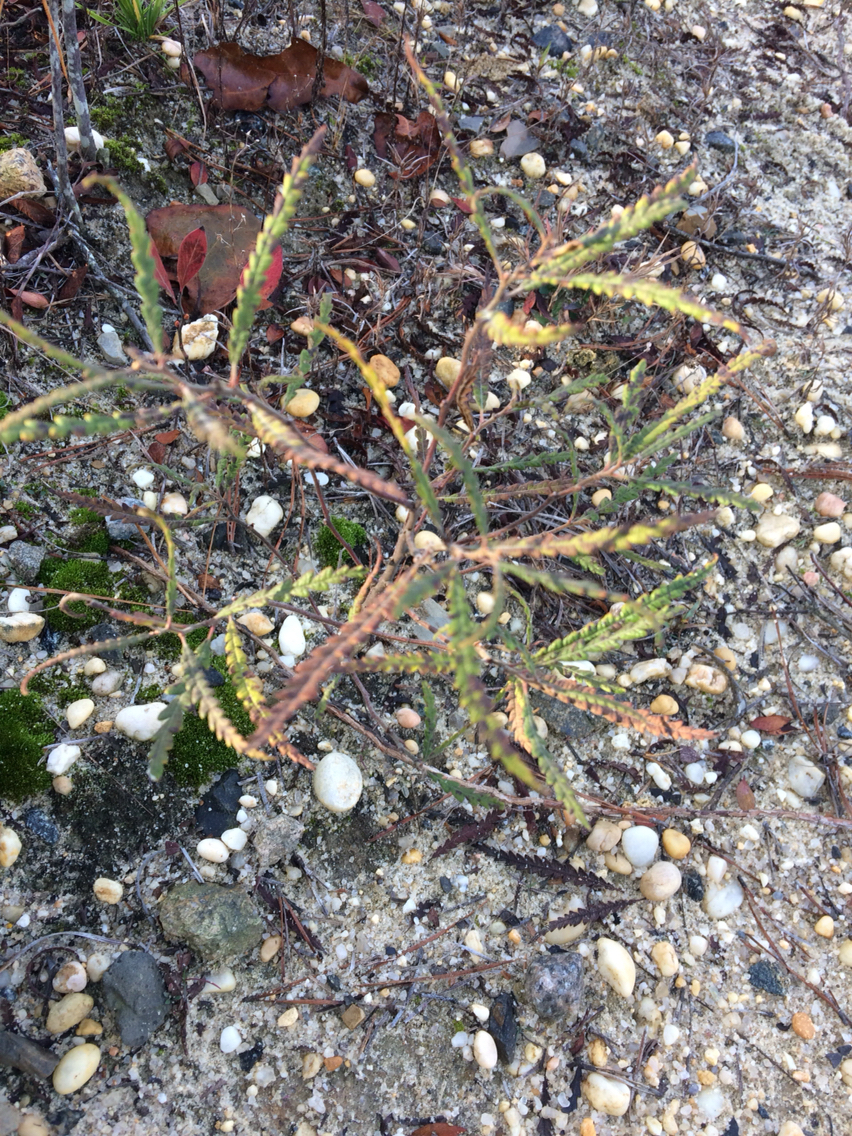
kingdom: Plantae
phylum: Tracheophyta
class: Magnoliopsida
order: Fagales
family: Myricaceae
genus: Comptonia
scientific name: Comptonia peregrina
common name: Sweet-fern
